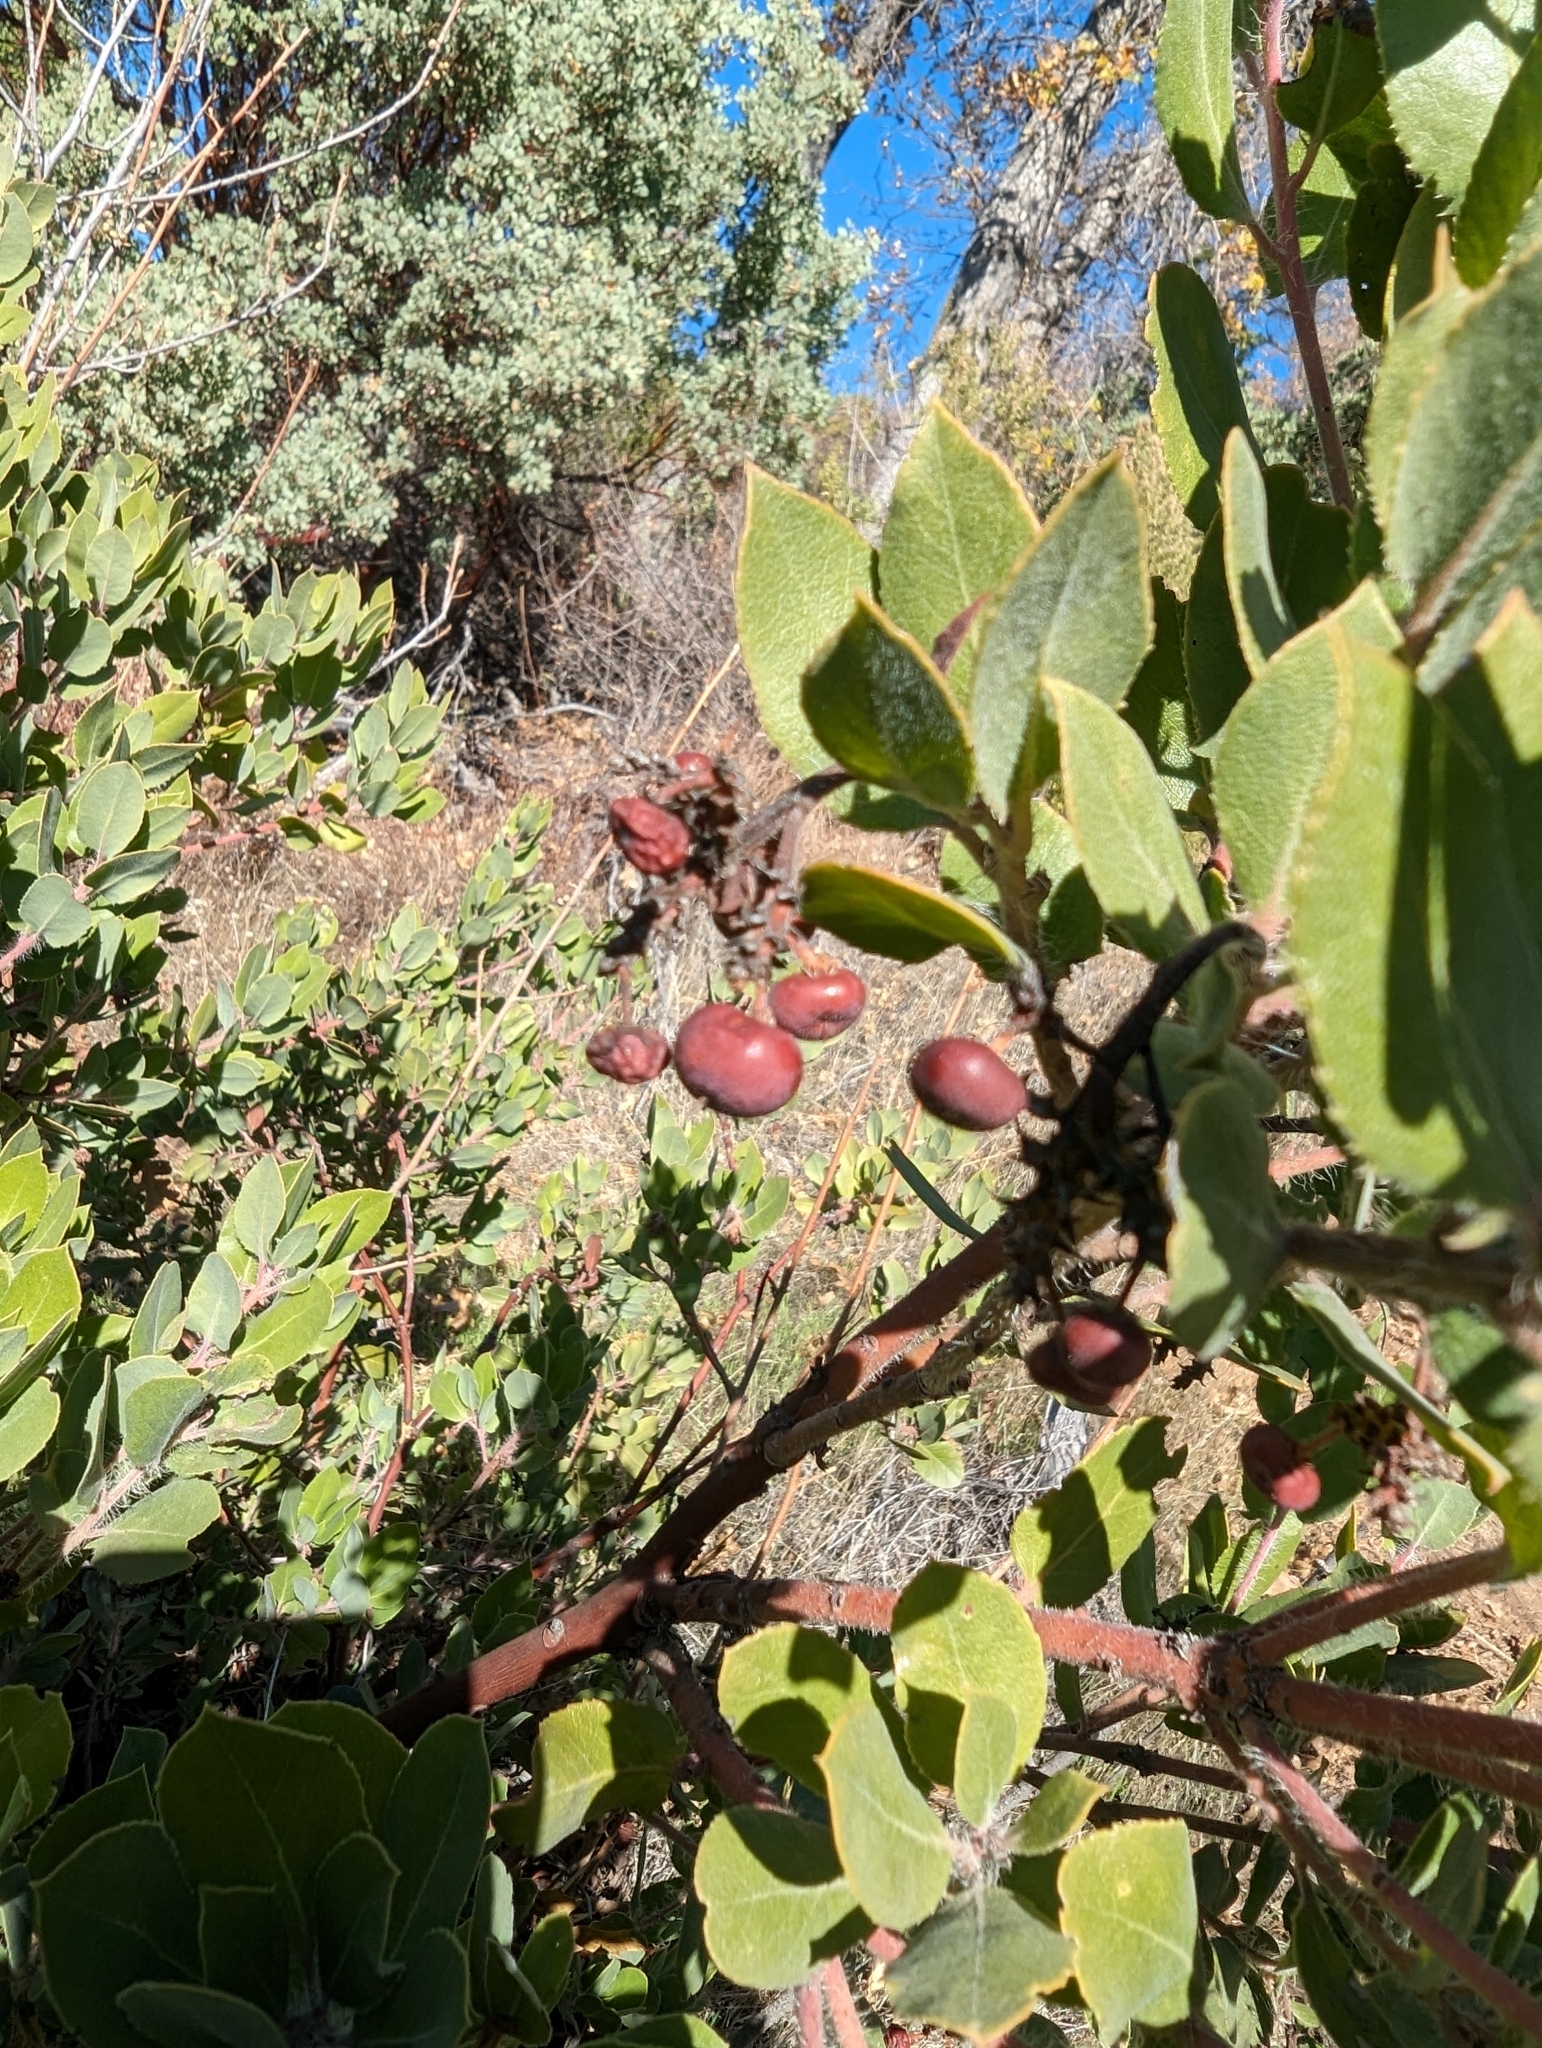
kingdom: Plantae
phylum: Tracheophyta
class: Magnoliopsida
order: Ericales
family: Ericaceae
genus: Arctostaphylos
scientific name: Arctostaphylos crustacea
